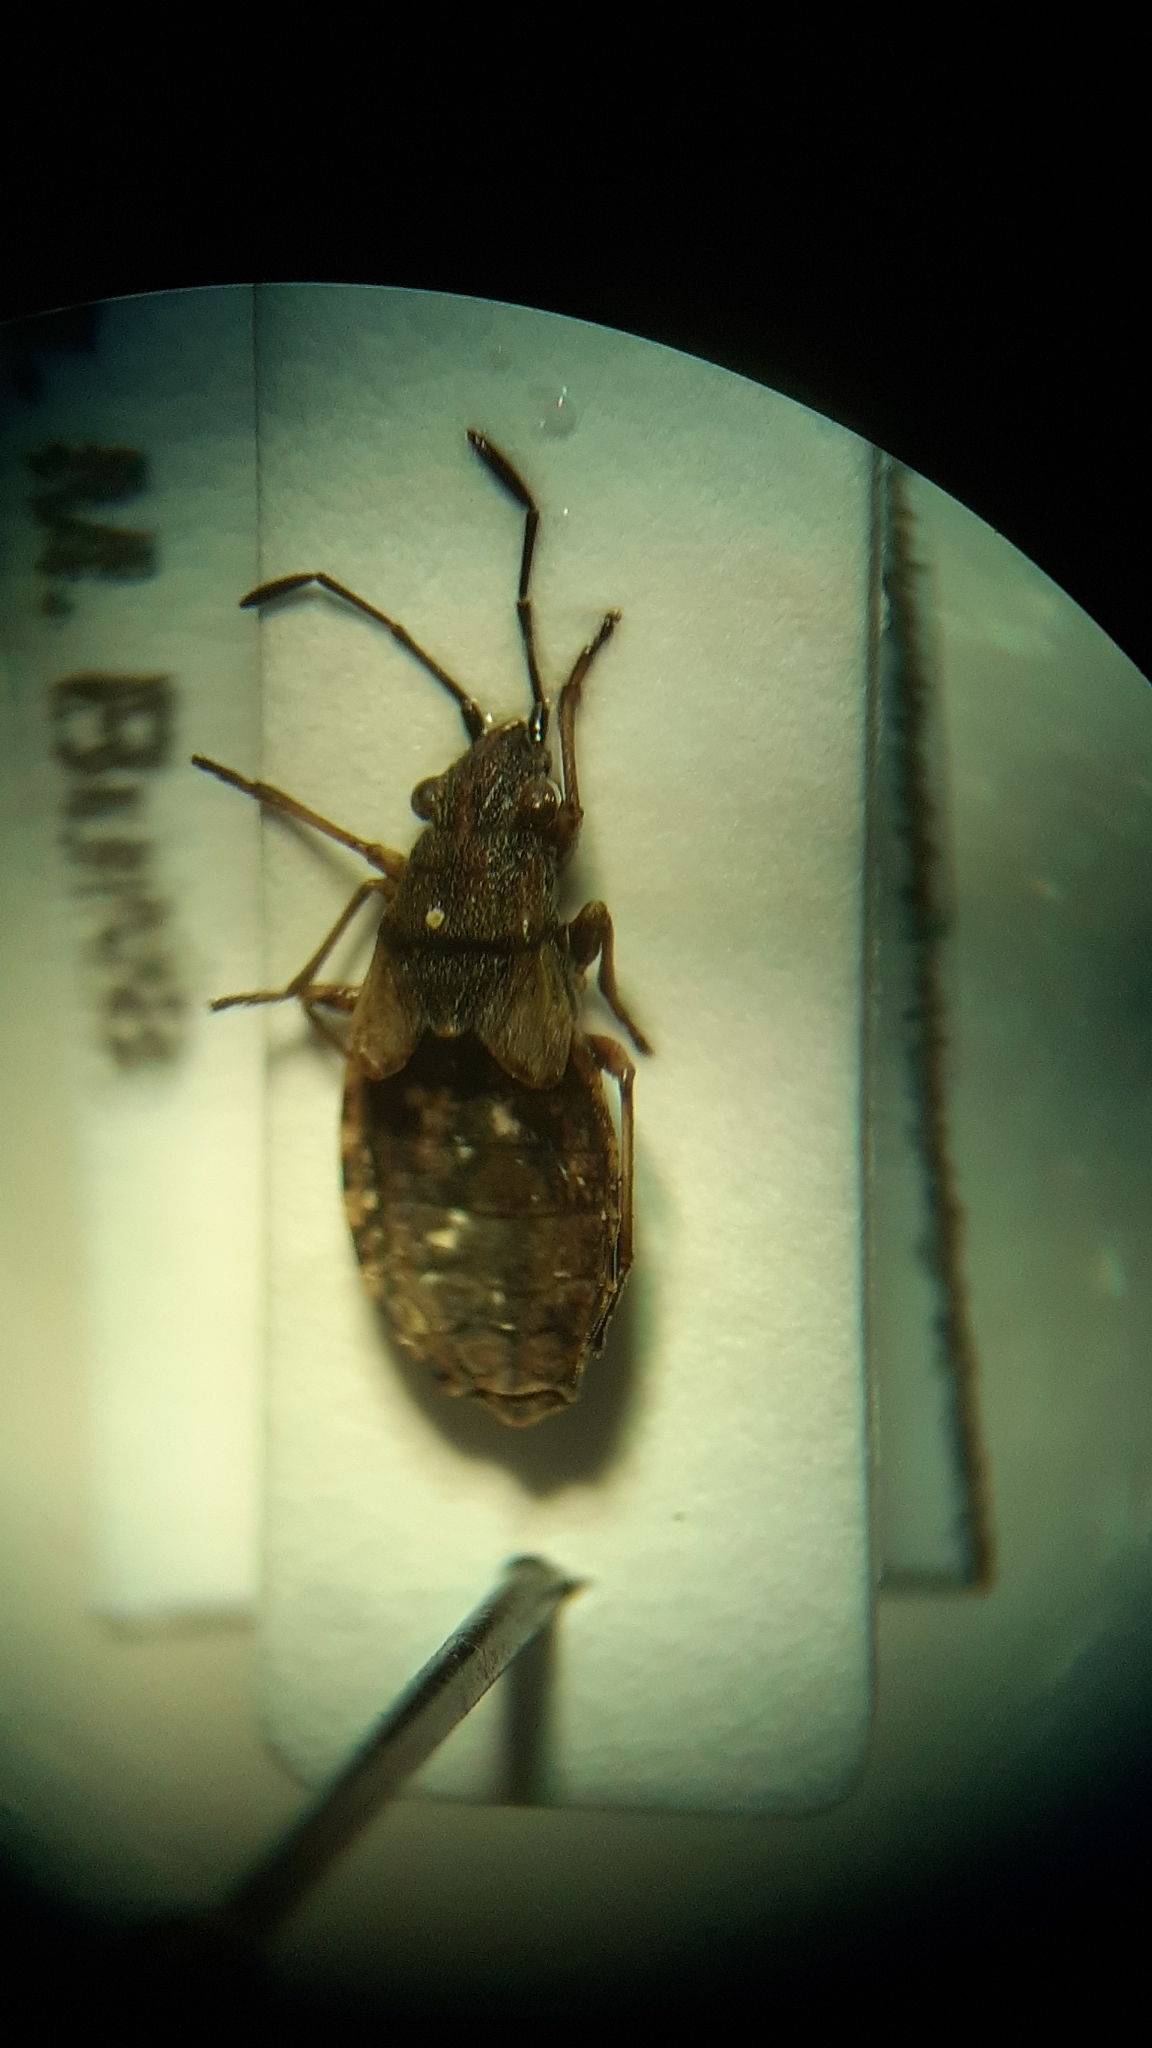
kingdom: Animalia
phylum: Arthropoda
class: Insecta
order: Hemiptera
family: Lygaeidae
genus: Nithecus
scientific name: Nithecus jacobaeae
